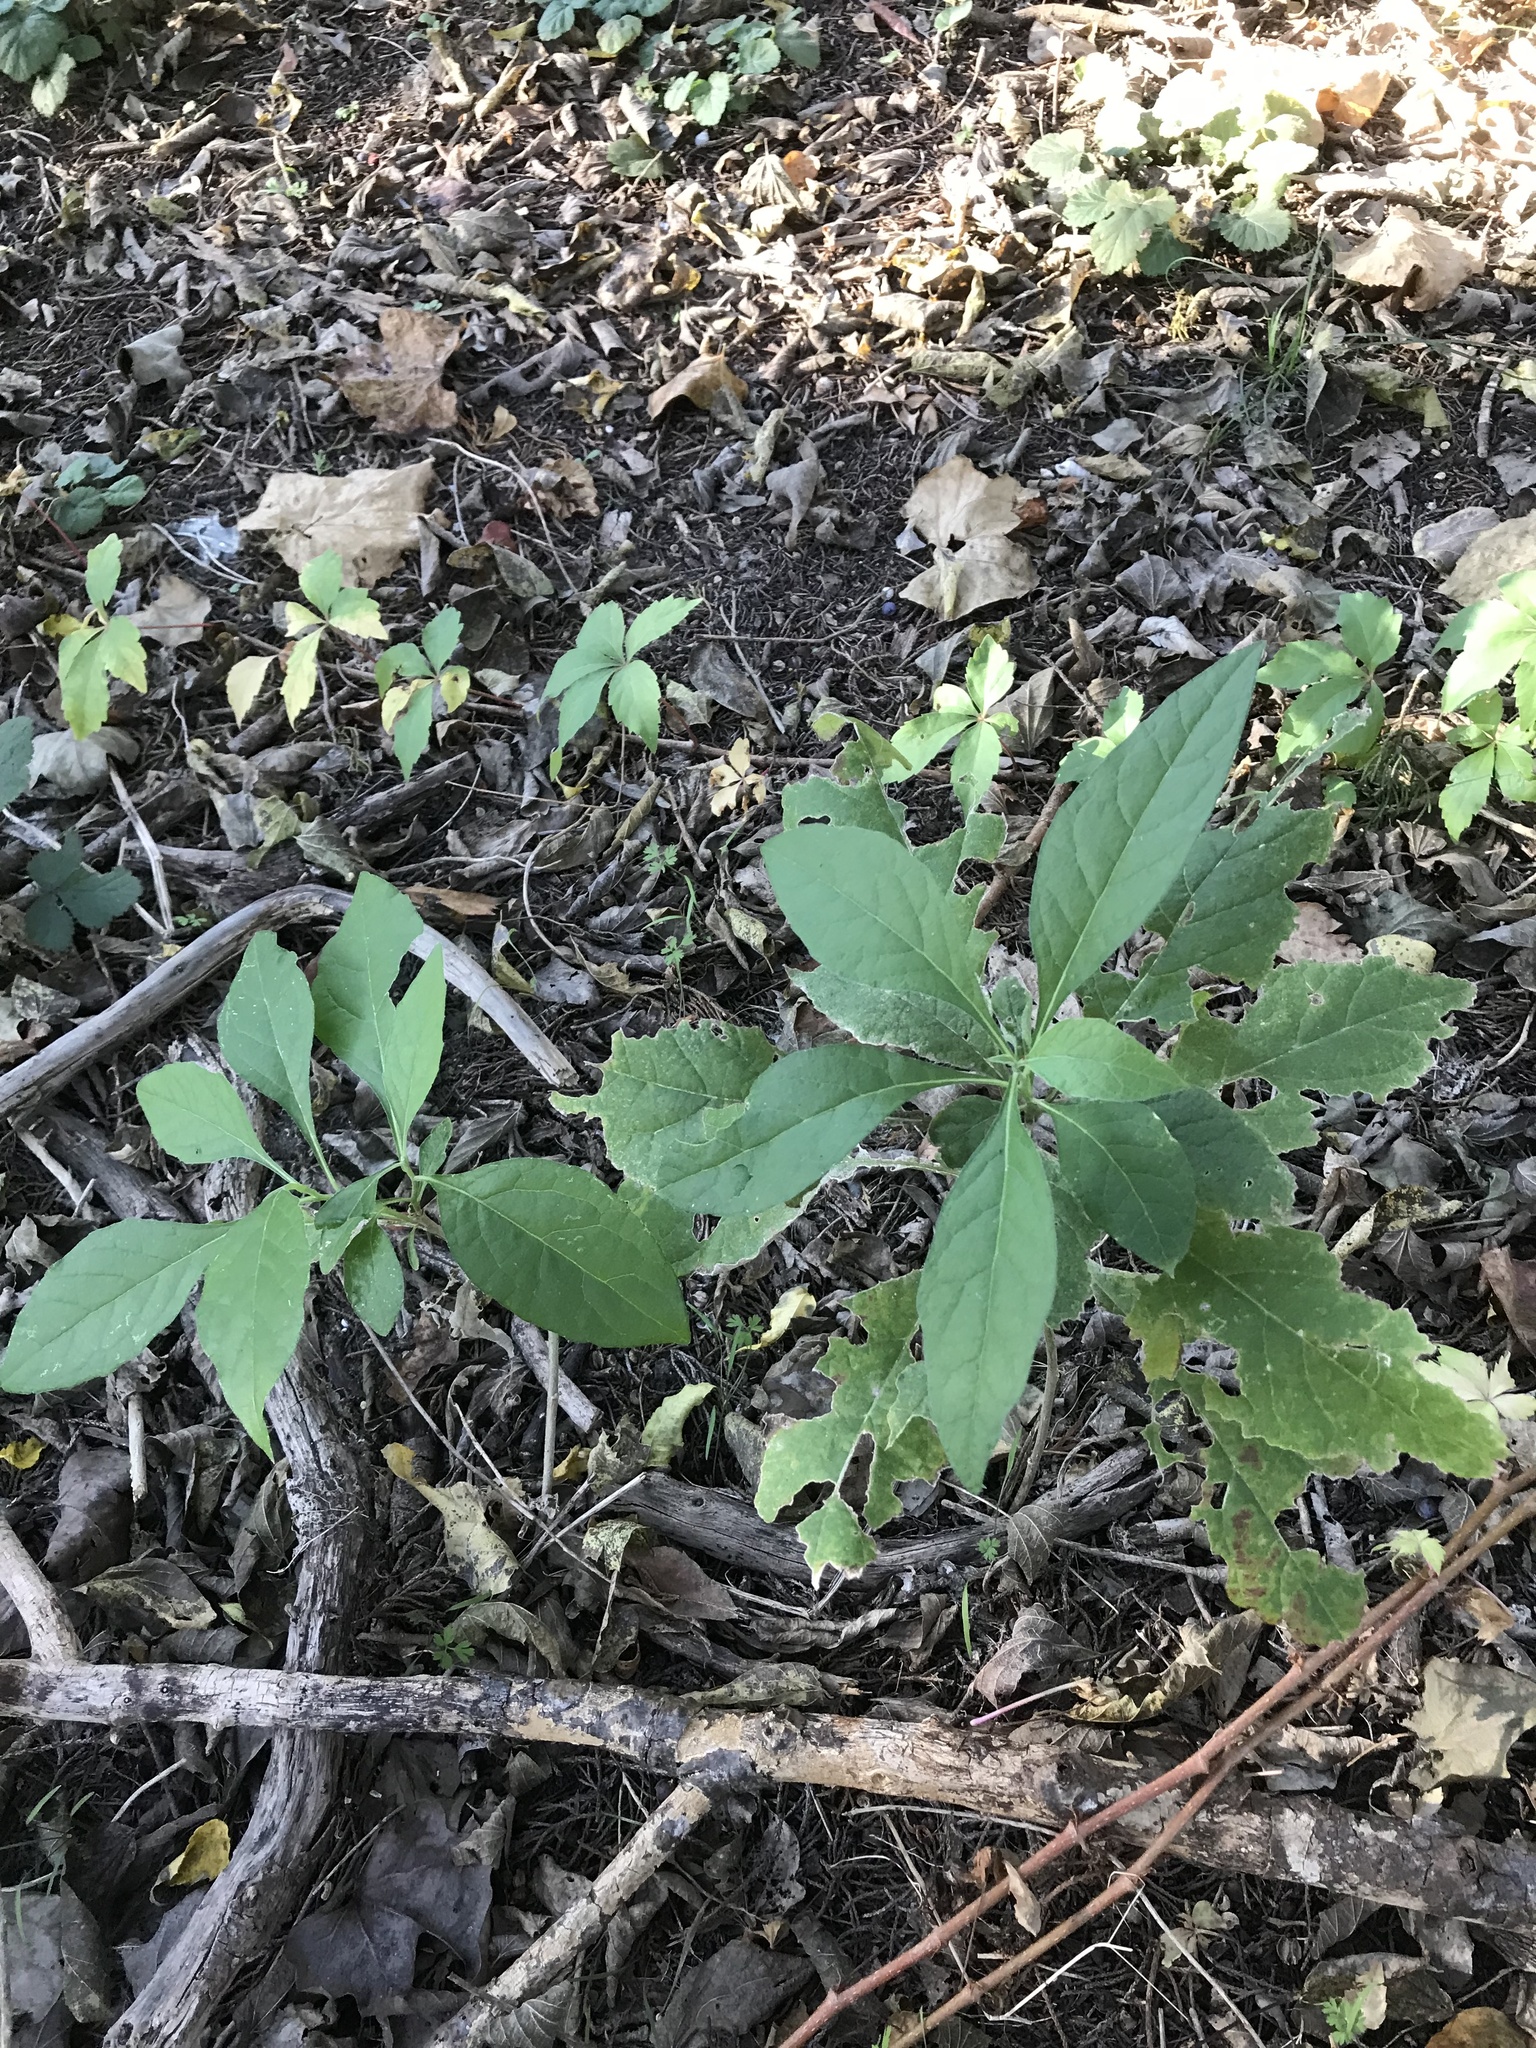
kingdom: Plantae
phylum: Tracheophyta
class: Magnoliopsida
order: Asterales
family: Asteraceae
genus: Verbesina
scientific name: Verbesina virginica
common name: Frostweed
